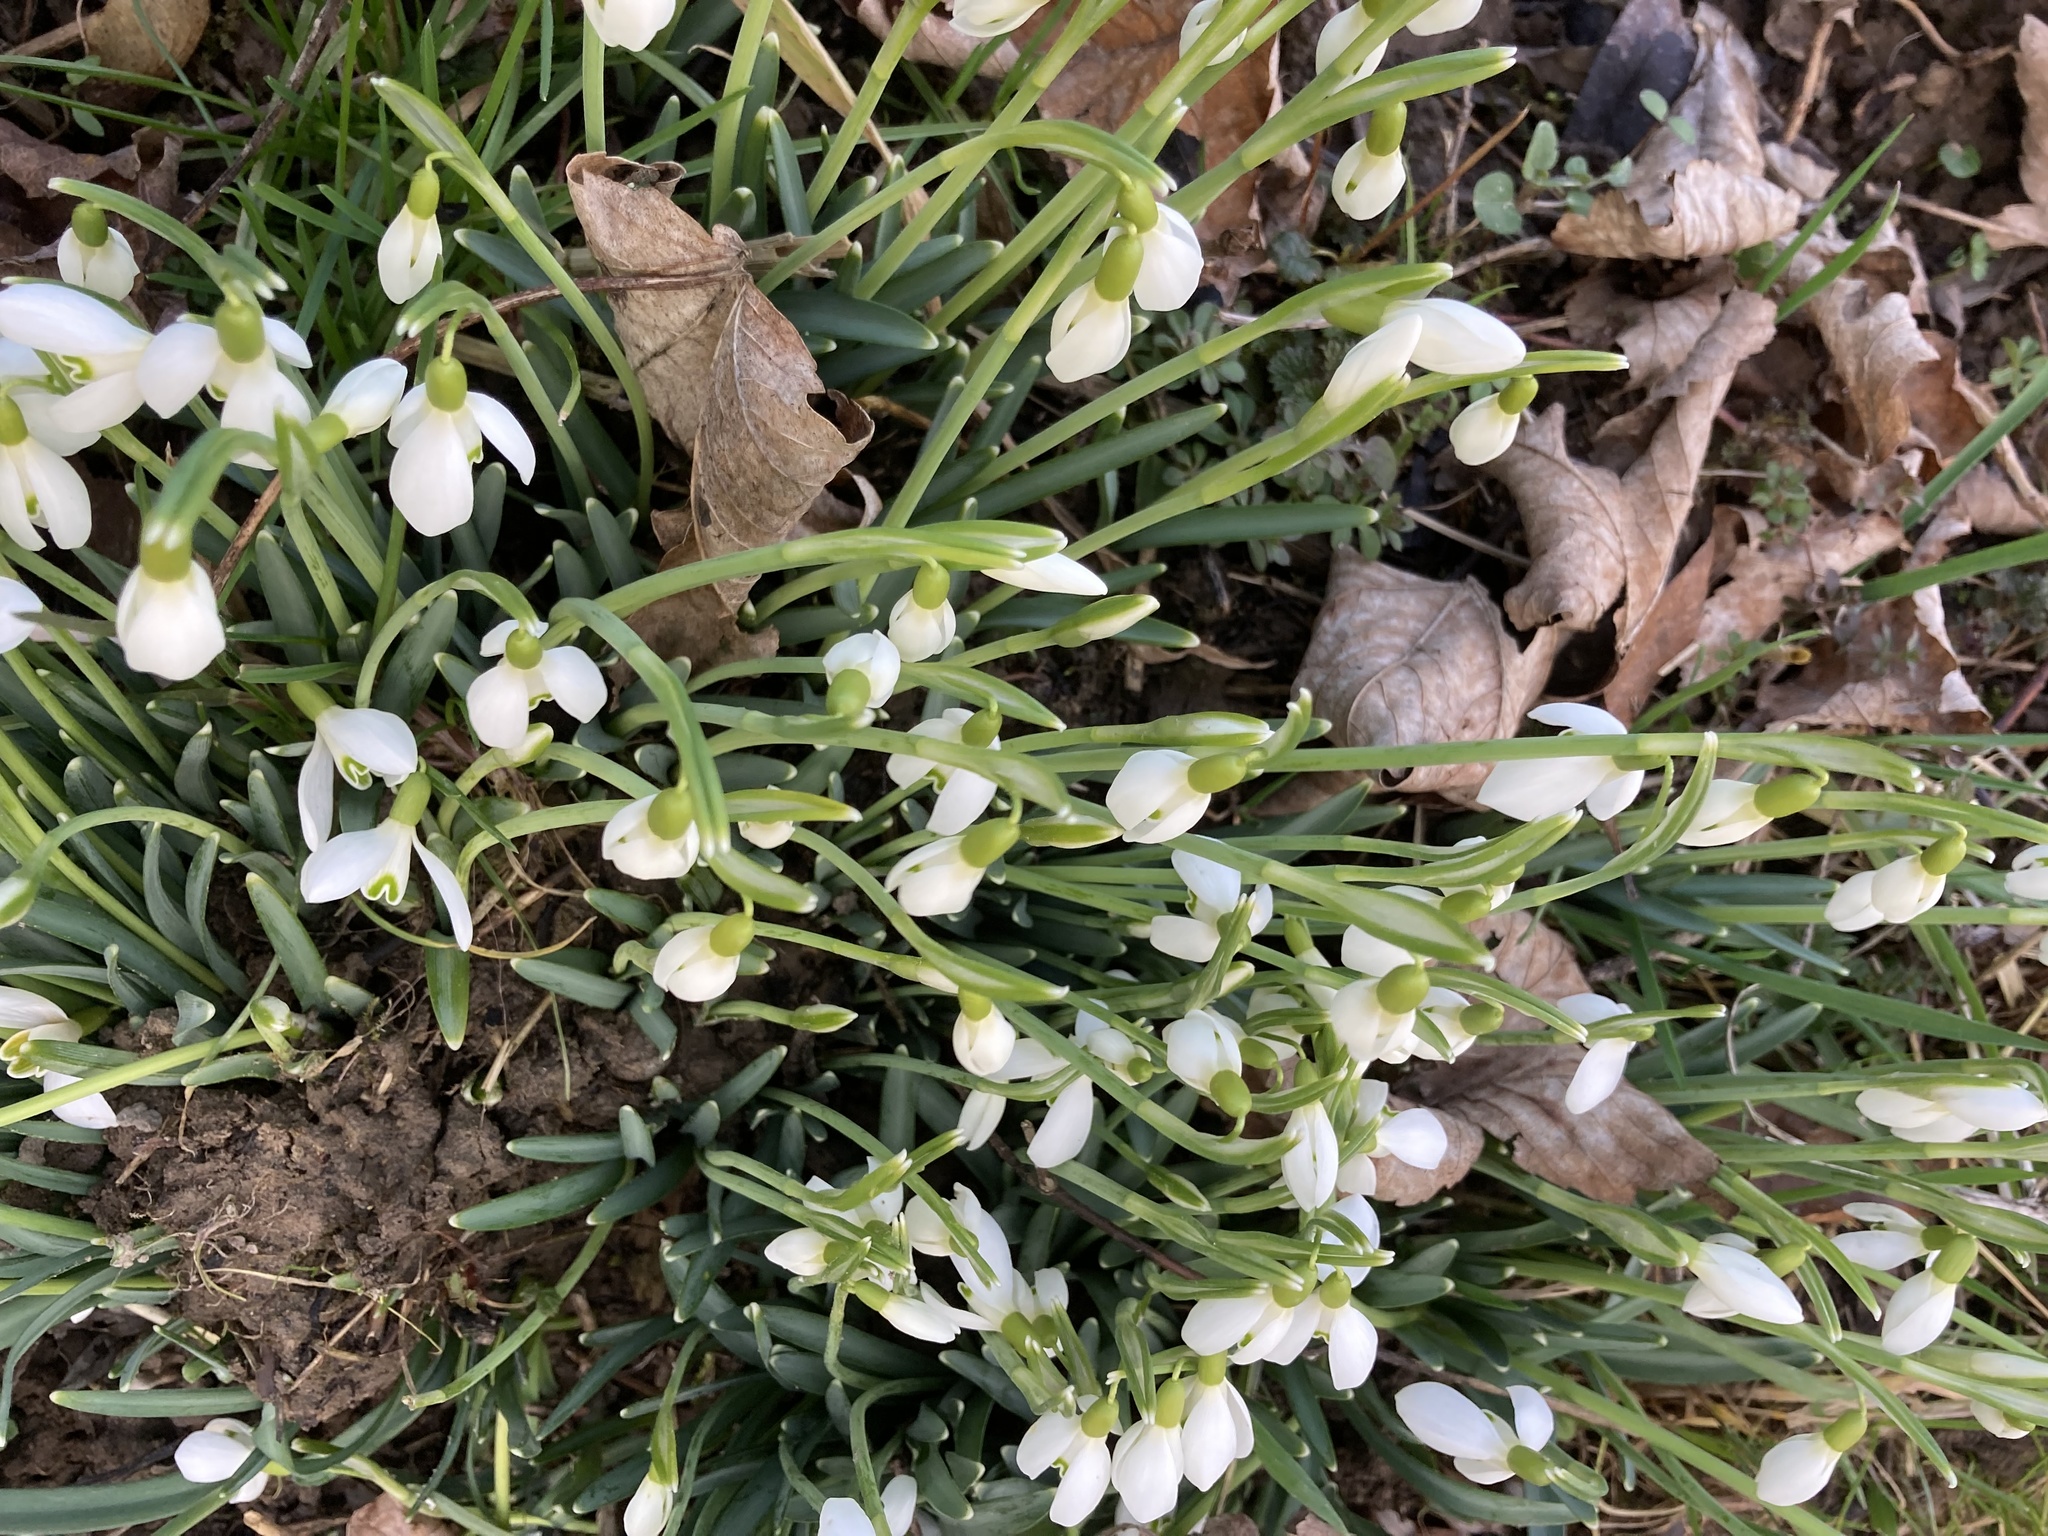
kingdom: Plantae
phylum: Tracheophyta
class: Liliopsida
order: Asparagales
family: Amaryllidaceae
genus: Galanthus
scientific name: Galanthus nivalis
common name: Snowdrop
